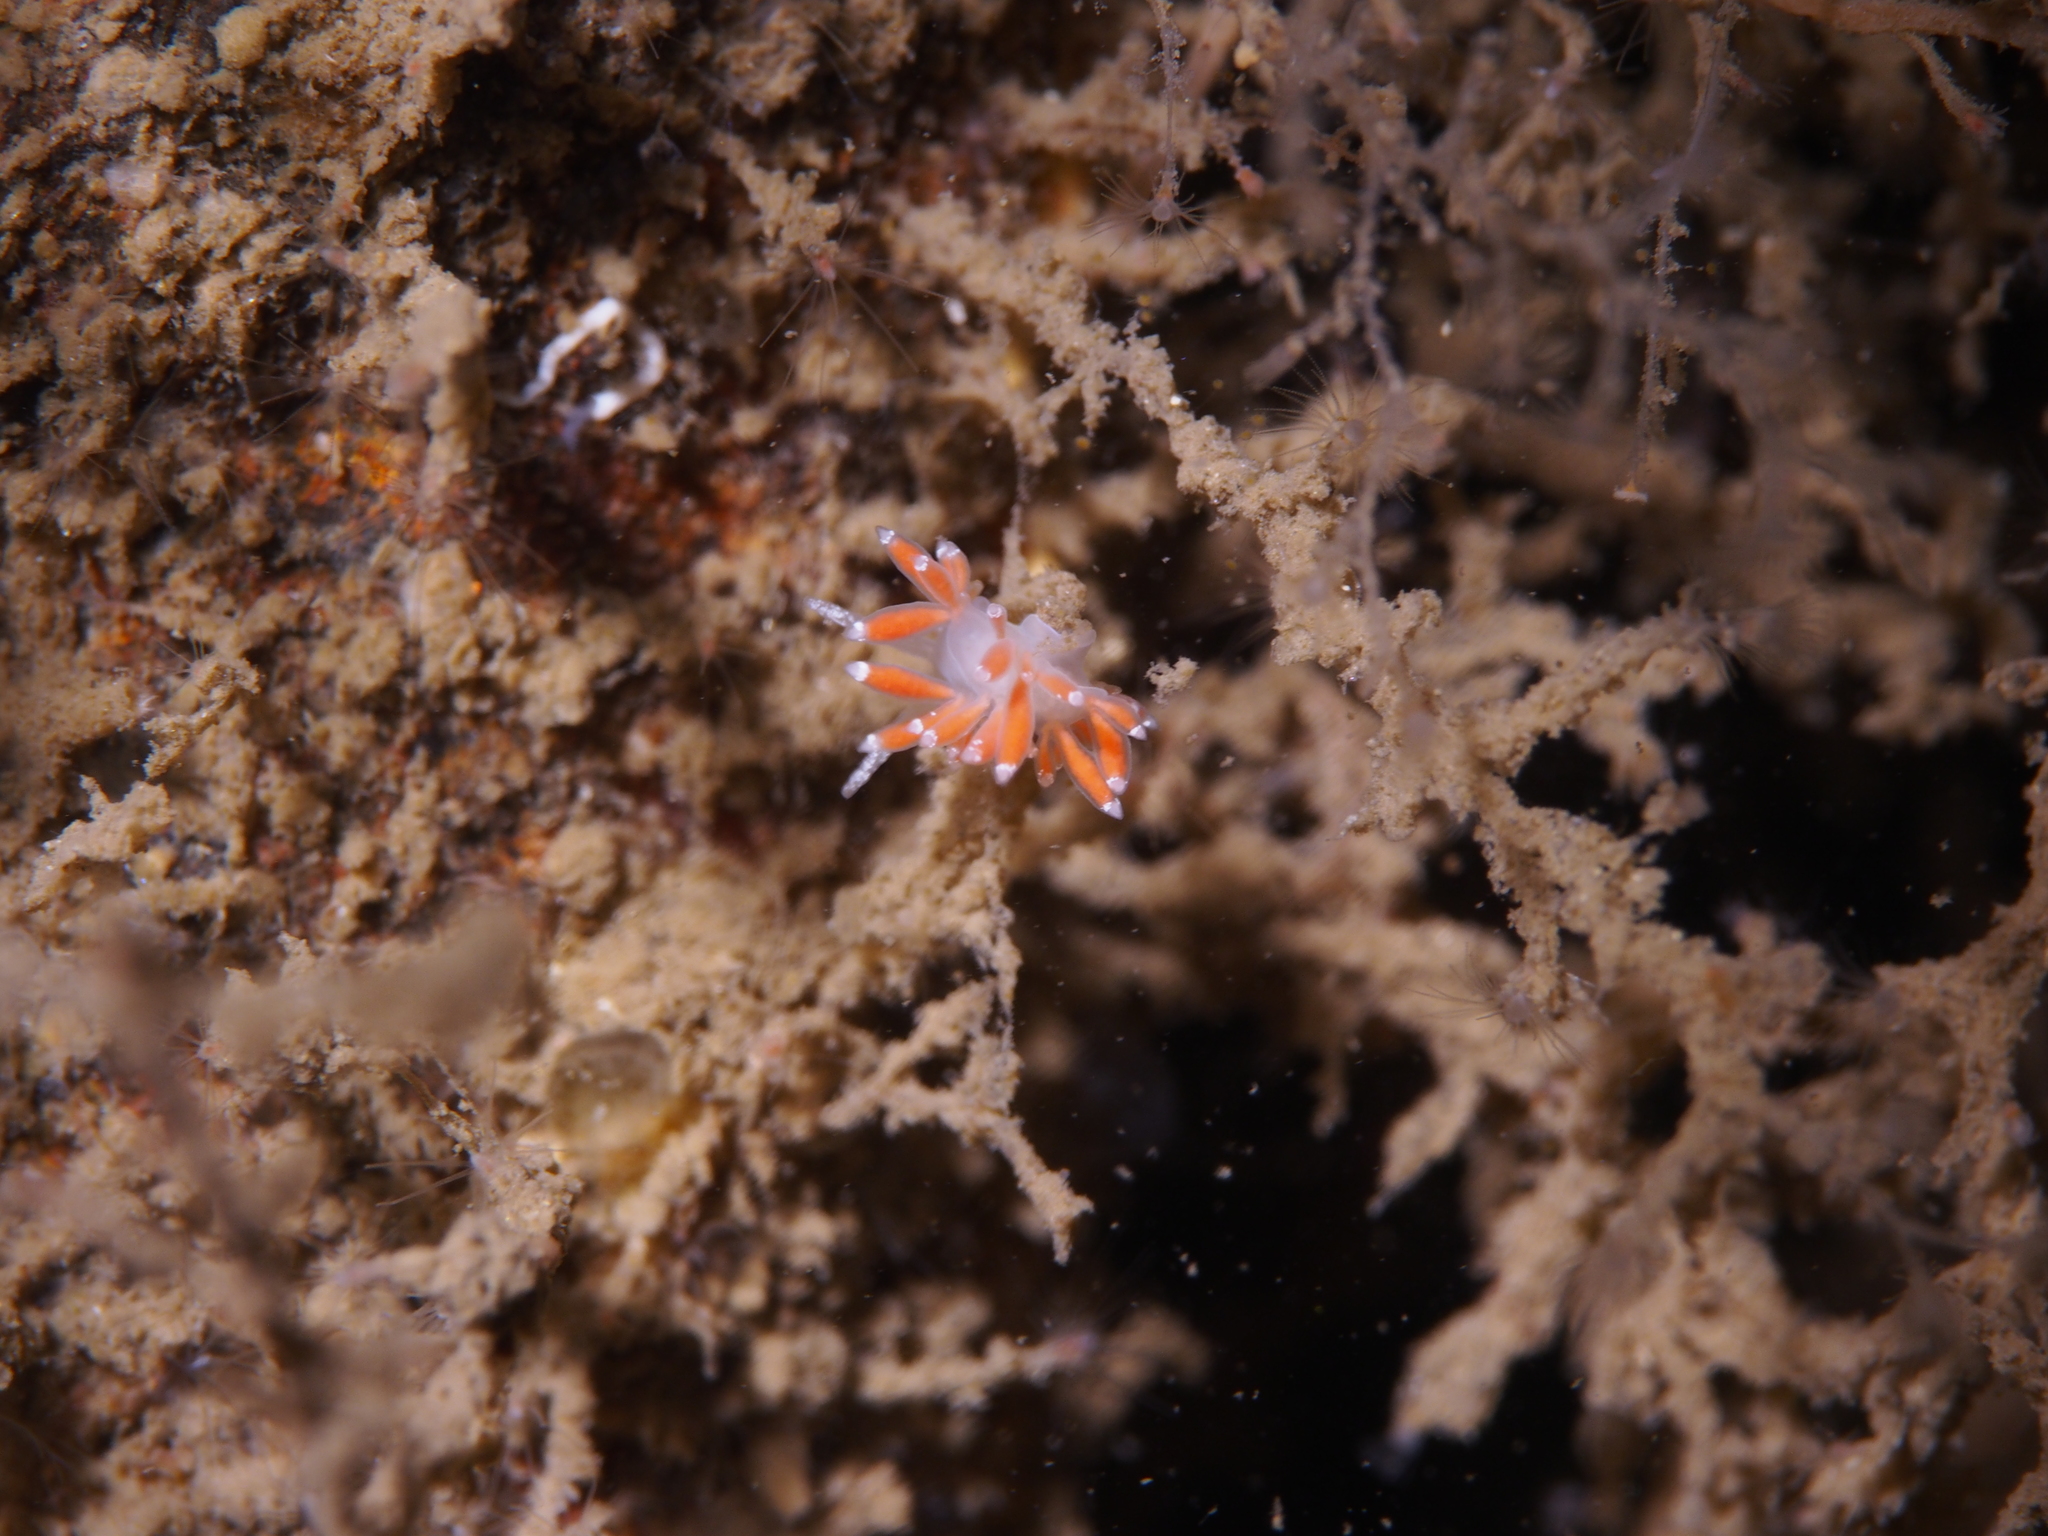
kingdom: Animalia
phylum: Mollusca
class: Gastropoda
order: Nudibranchia
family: Coryphellidae
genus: Coryphella
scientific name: Coryphella gracilis
